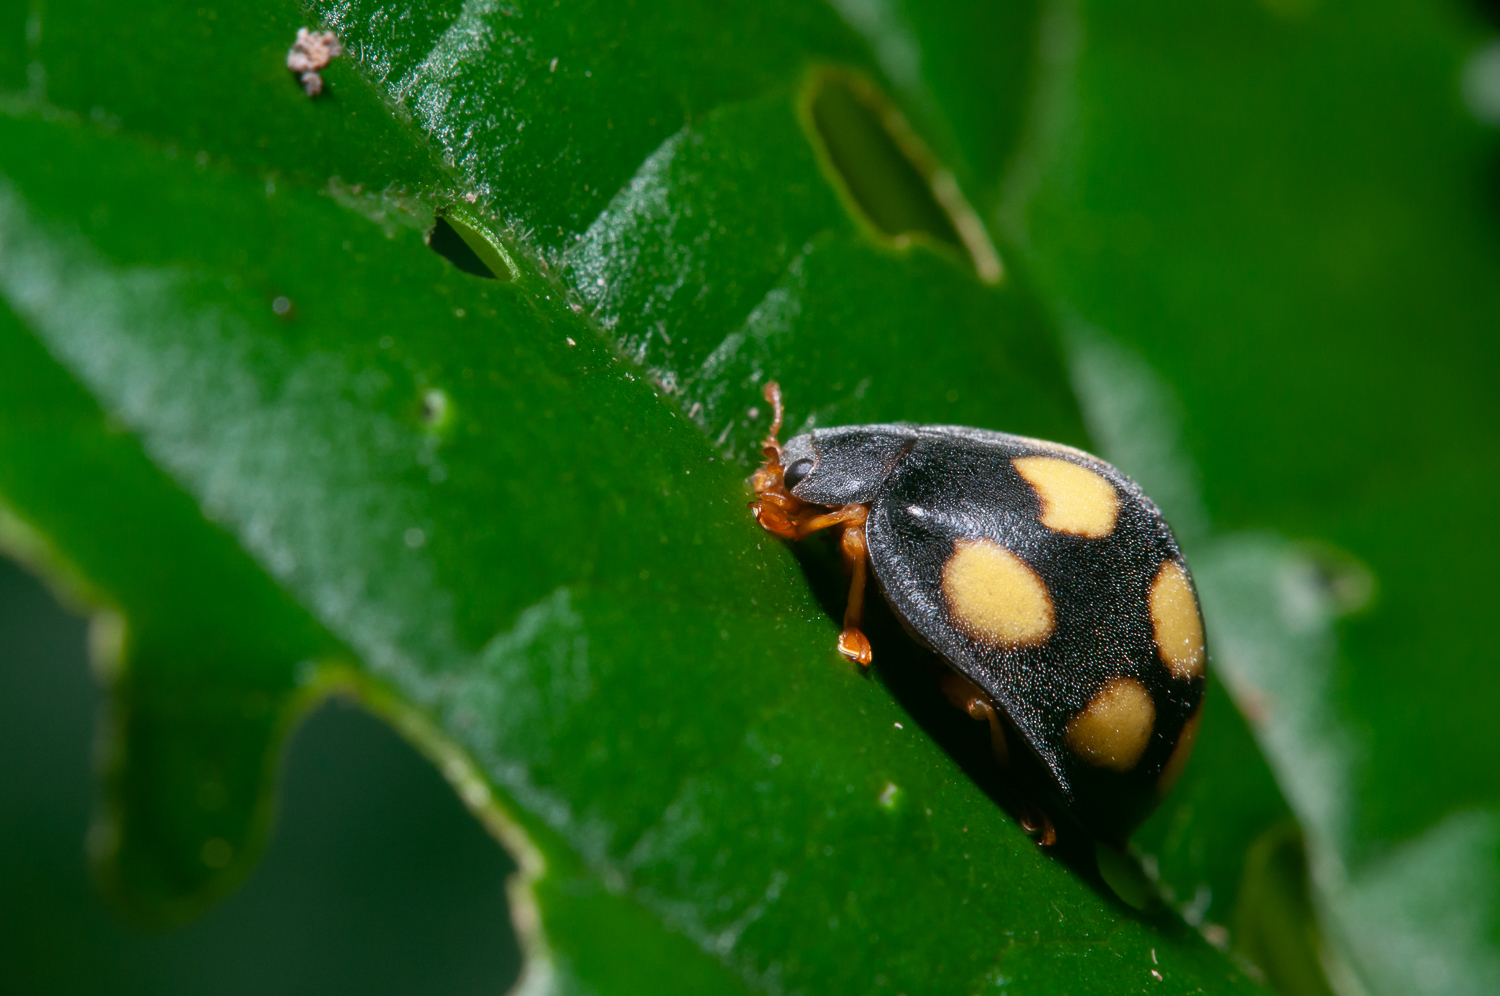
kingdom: Animalia
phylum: Arthropoda
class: Insecta
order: Coleoptera
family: Coccinellidae
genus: Epilachna
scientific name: Epilachna
